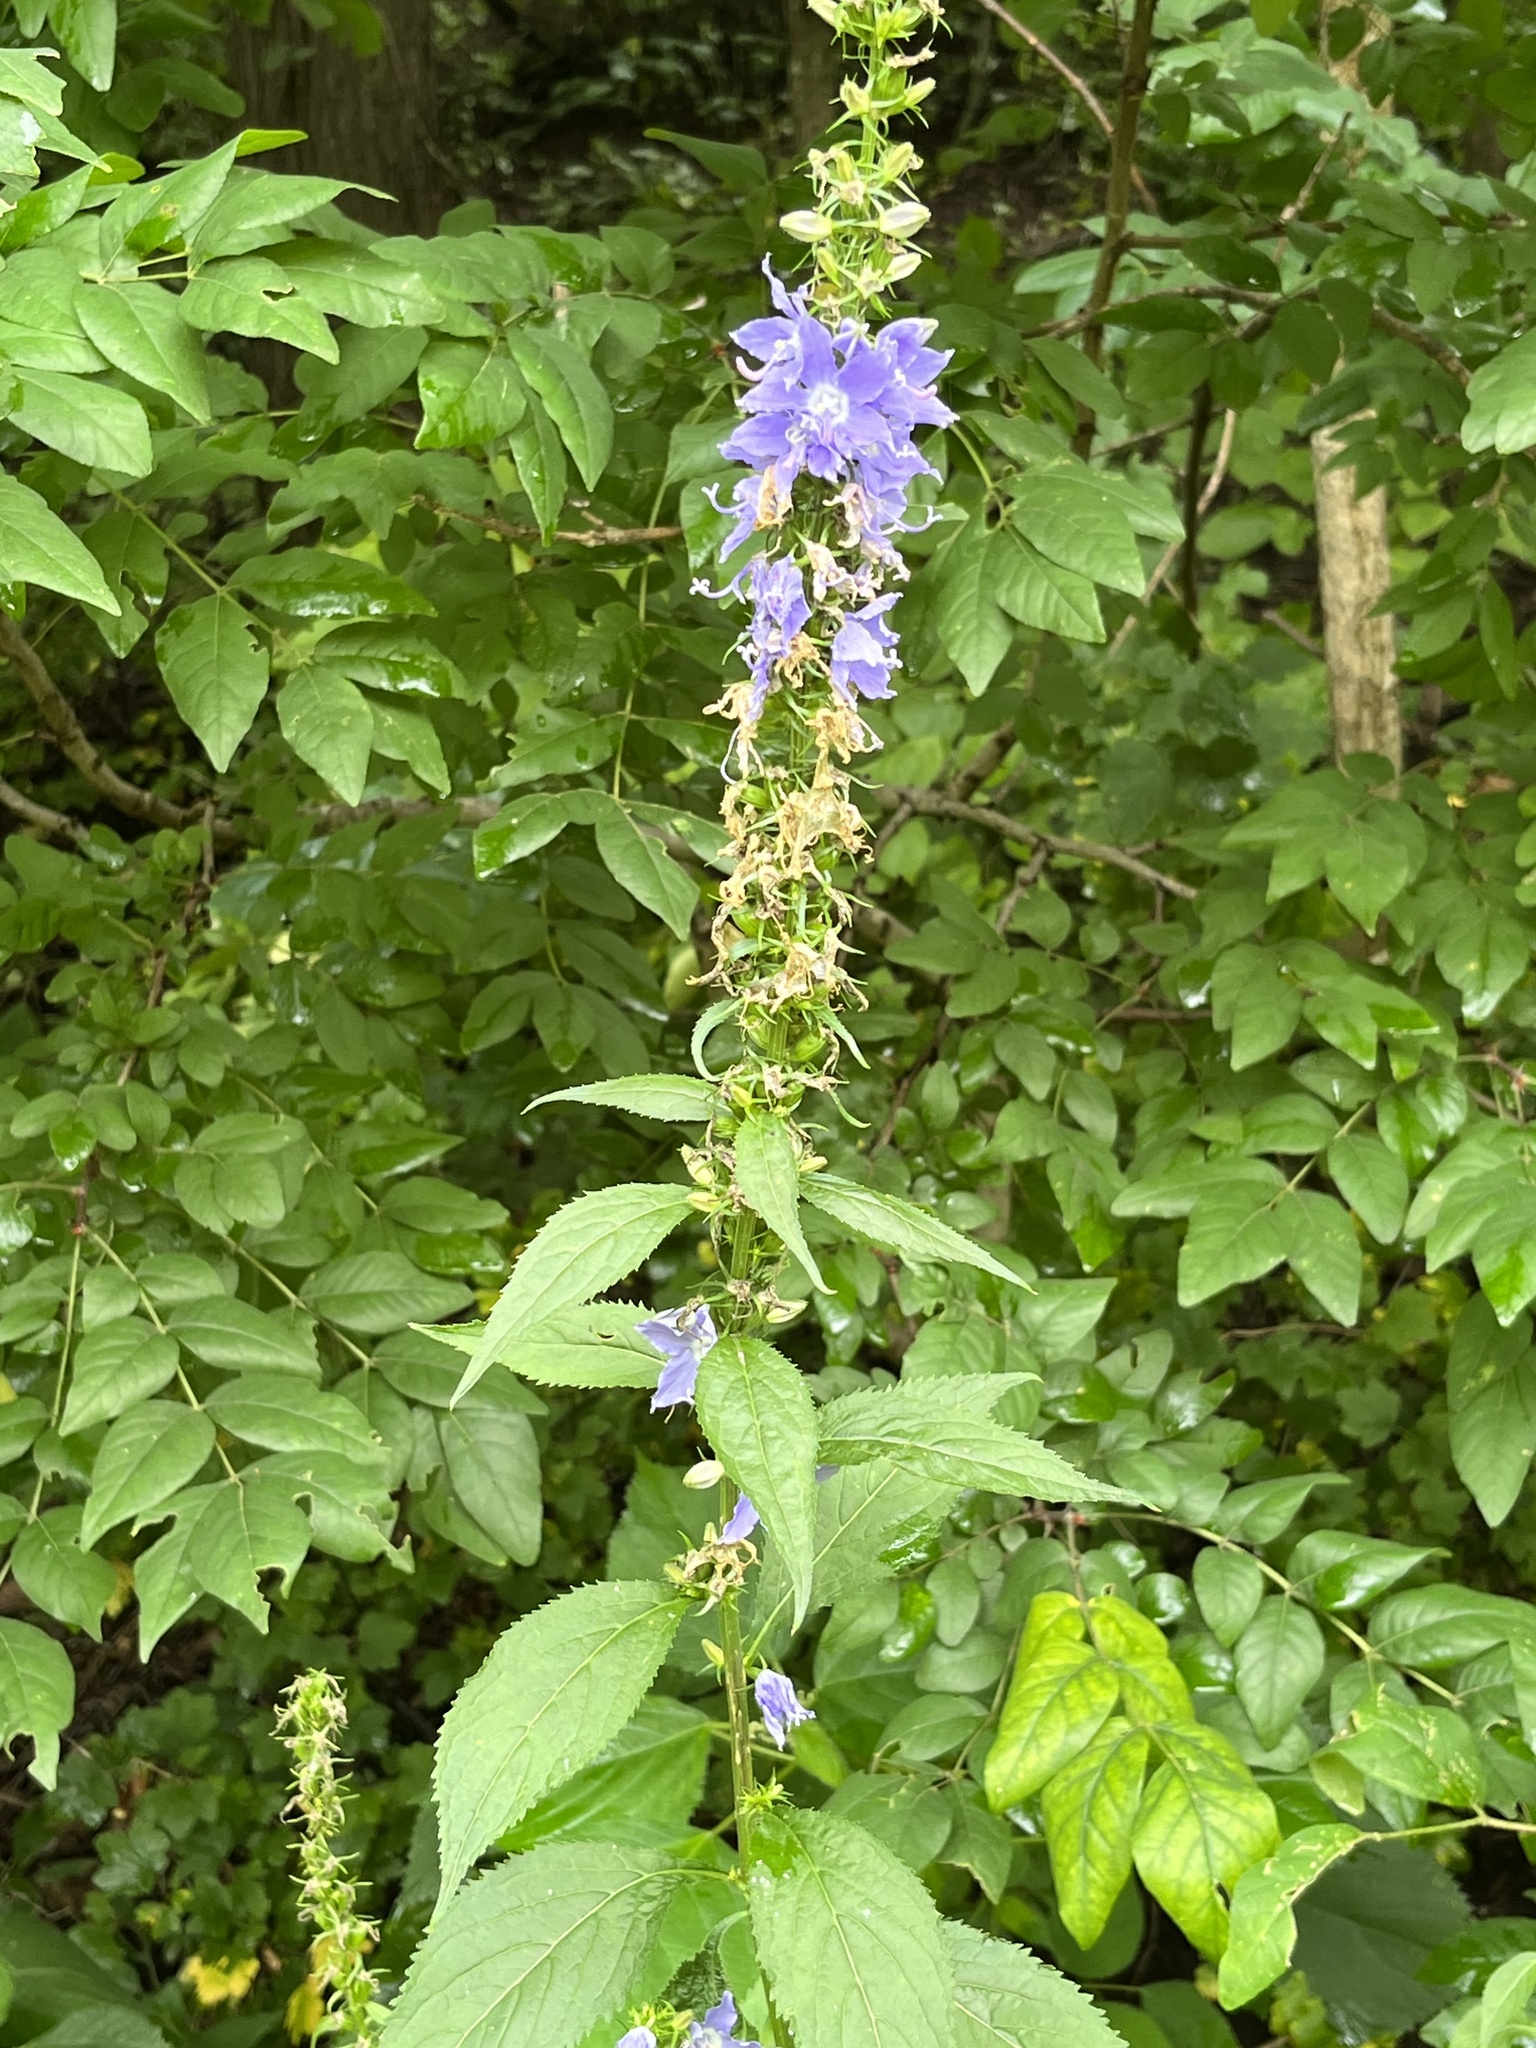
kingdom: Plantae
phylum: Tracheophyta
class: Magnoliopsida
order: Asterales
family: Campanulaceae
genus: Campanulastrum
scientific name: Campanulastrum americanum
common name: American bellflower
